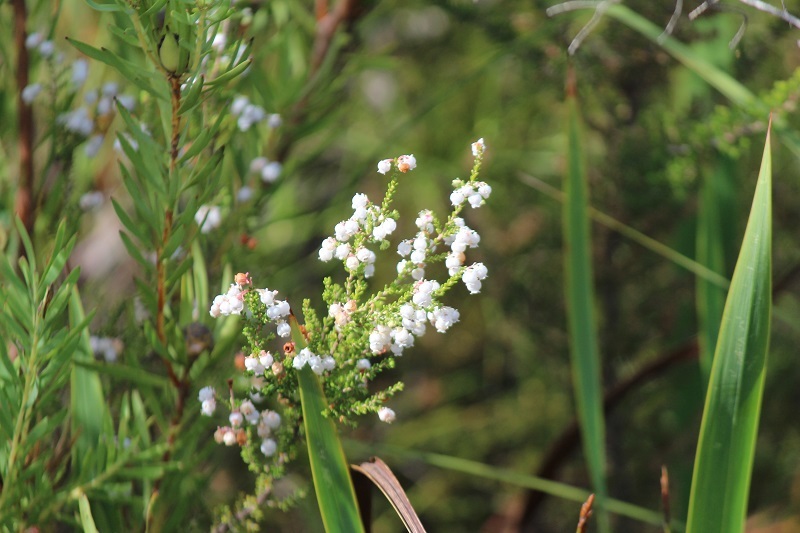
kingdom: Plantae
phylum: Tracheophyta
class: Magnoliopsida
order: Ericales
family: Ericaceae
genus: Erica
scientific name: Erica formosa
